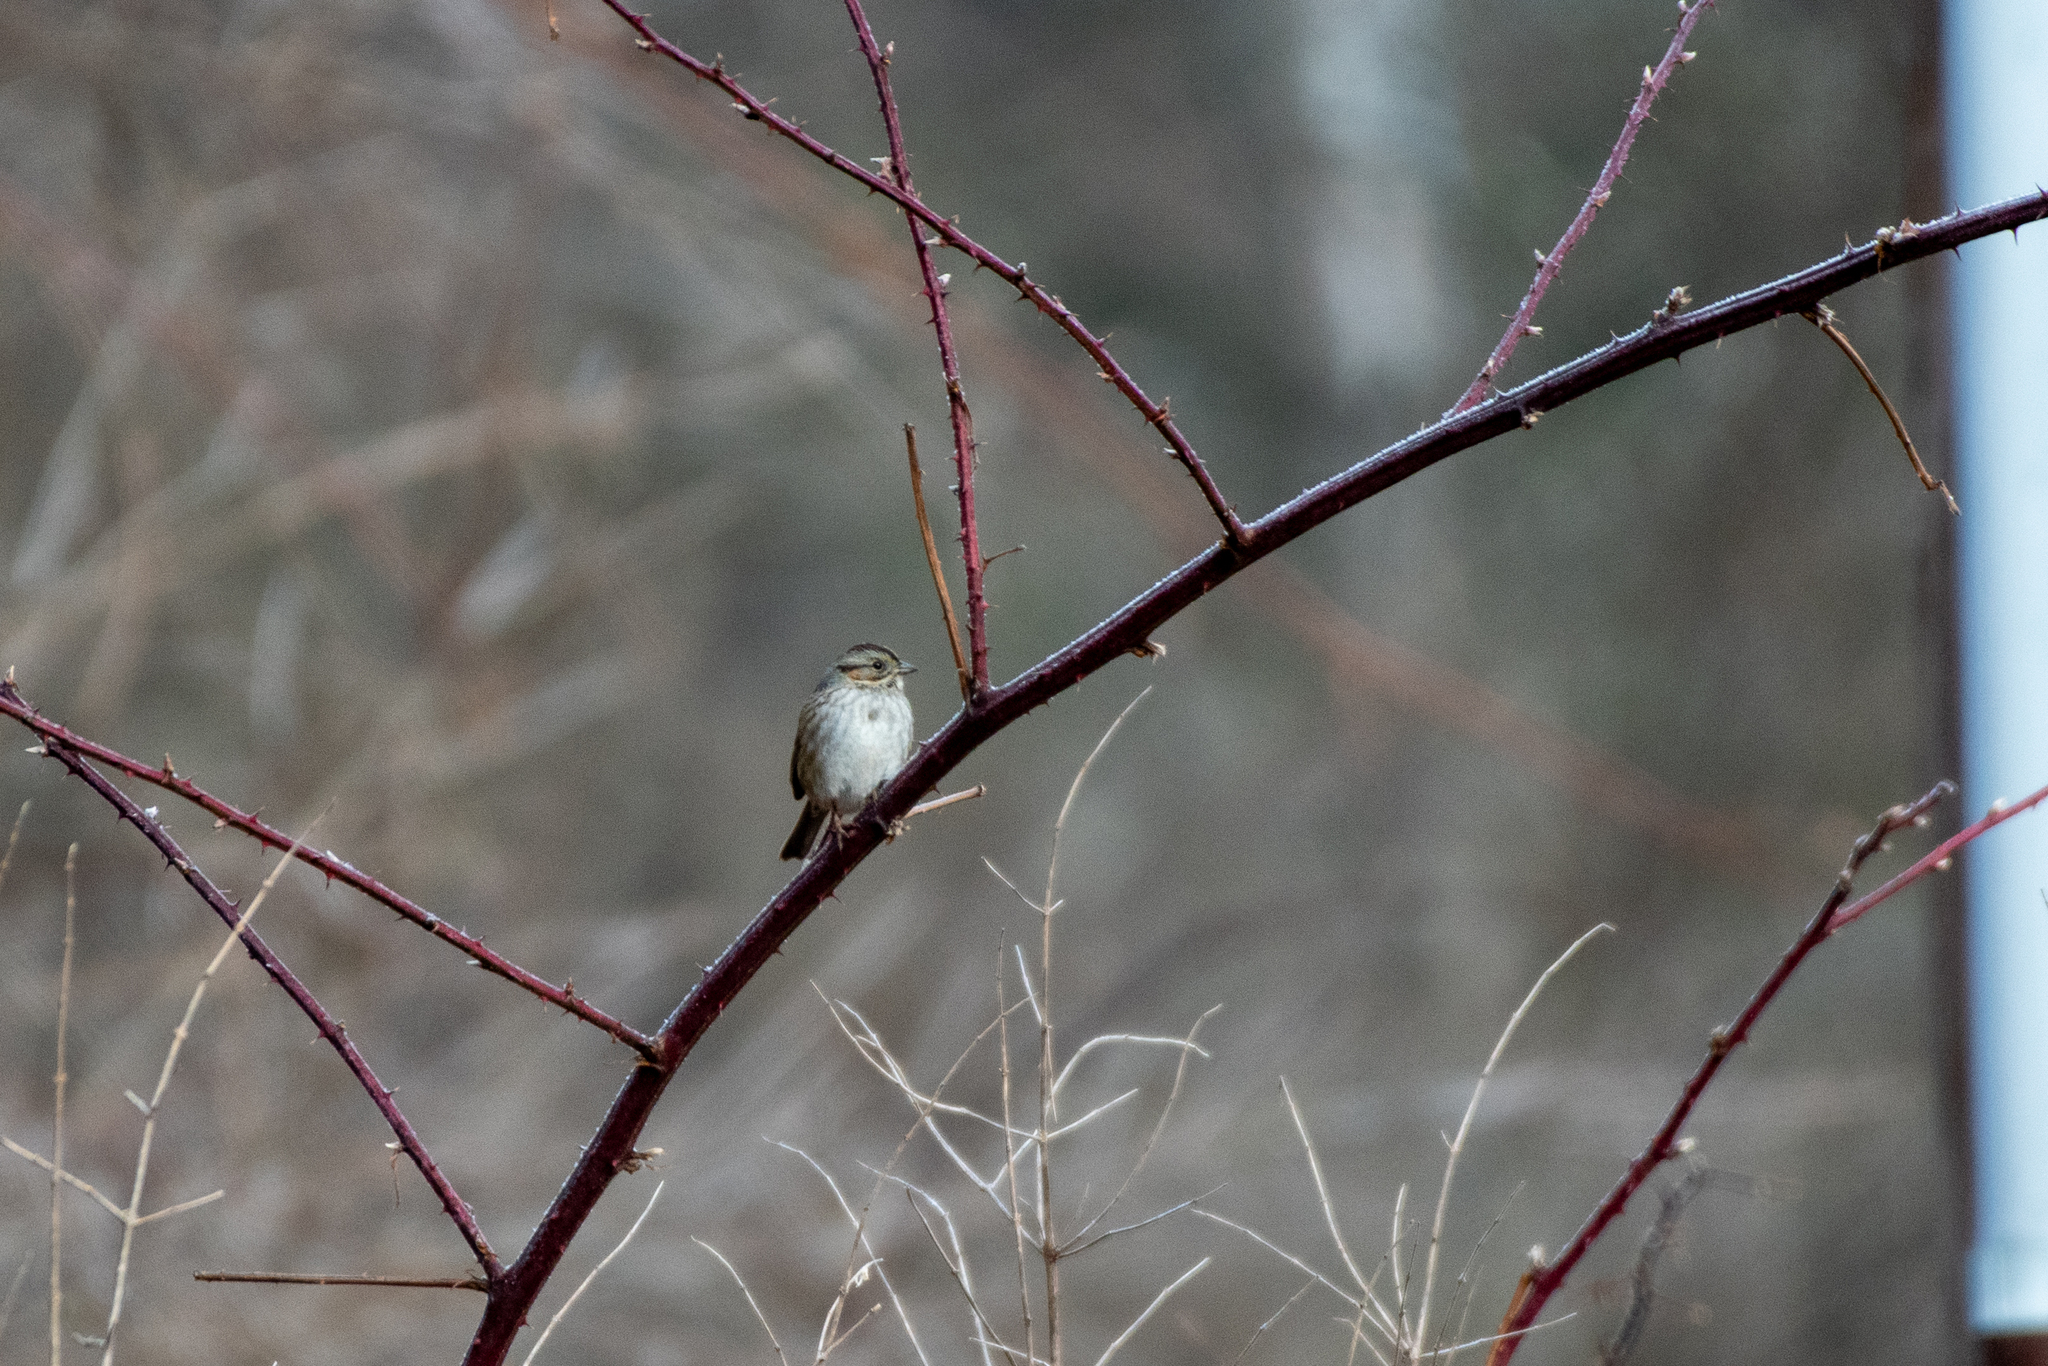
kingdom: Animalia
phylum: Chordata
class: Aves
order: Passeriformes
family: Passerellidae
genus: Melospiza
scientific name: Melospiza georgiana
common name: Swamp sparrow
